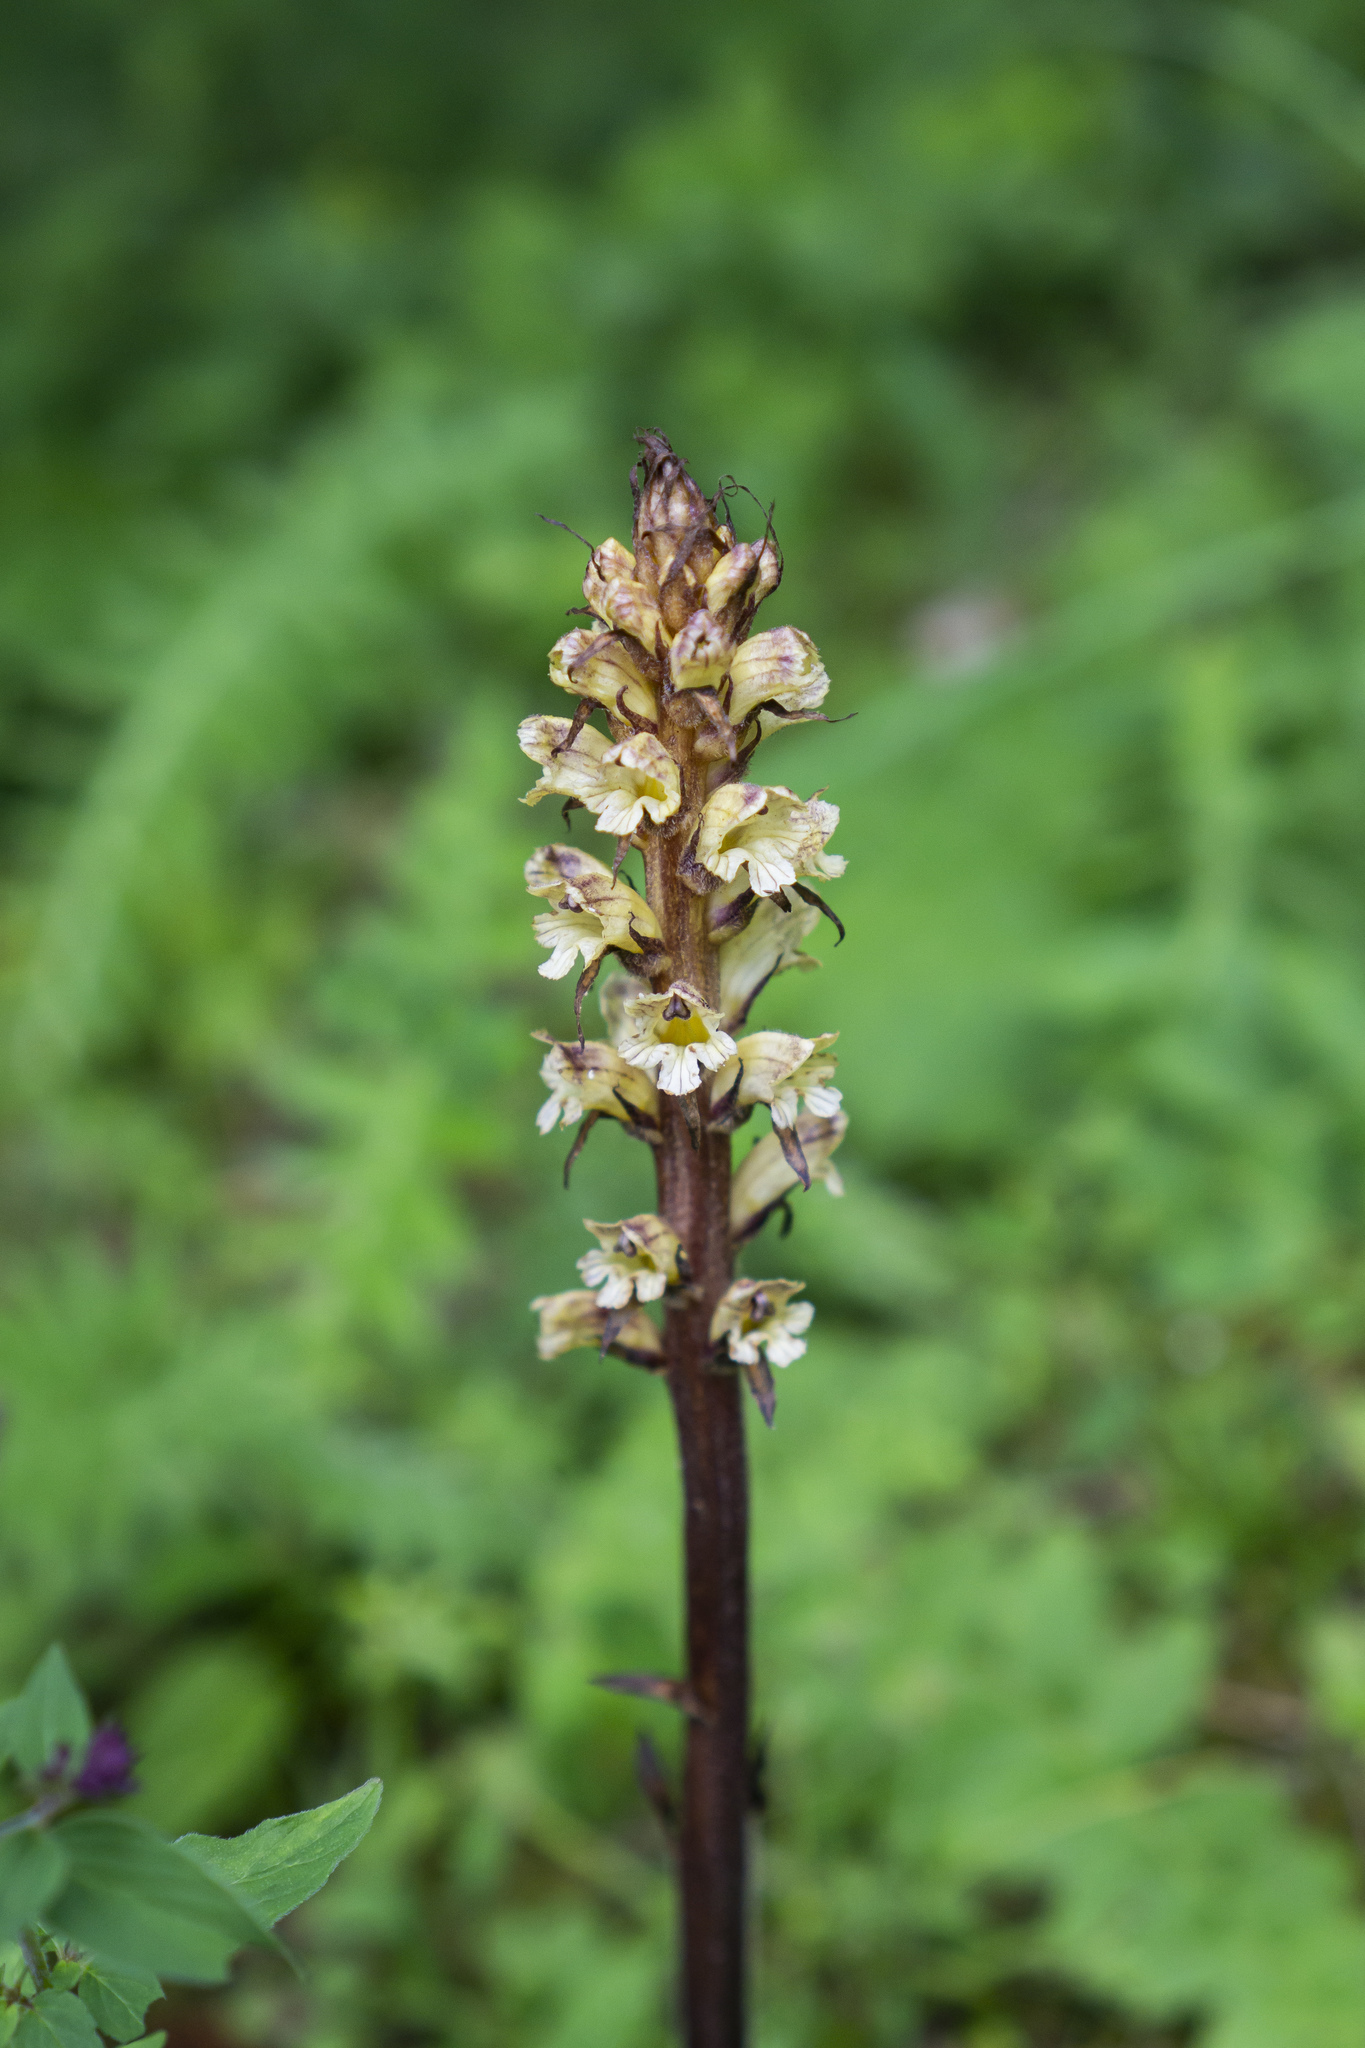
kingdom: Plantae
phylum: Tracheophyta
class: Magnoliopsida
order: Lamiales
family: Orobanchaceae
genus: Orobanche
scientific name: Orobanche reticulata
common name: Thistle broomrape
